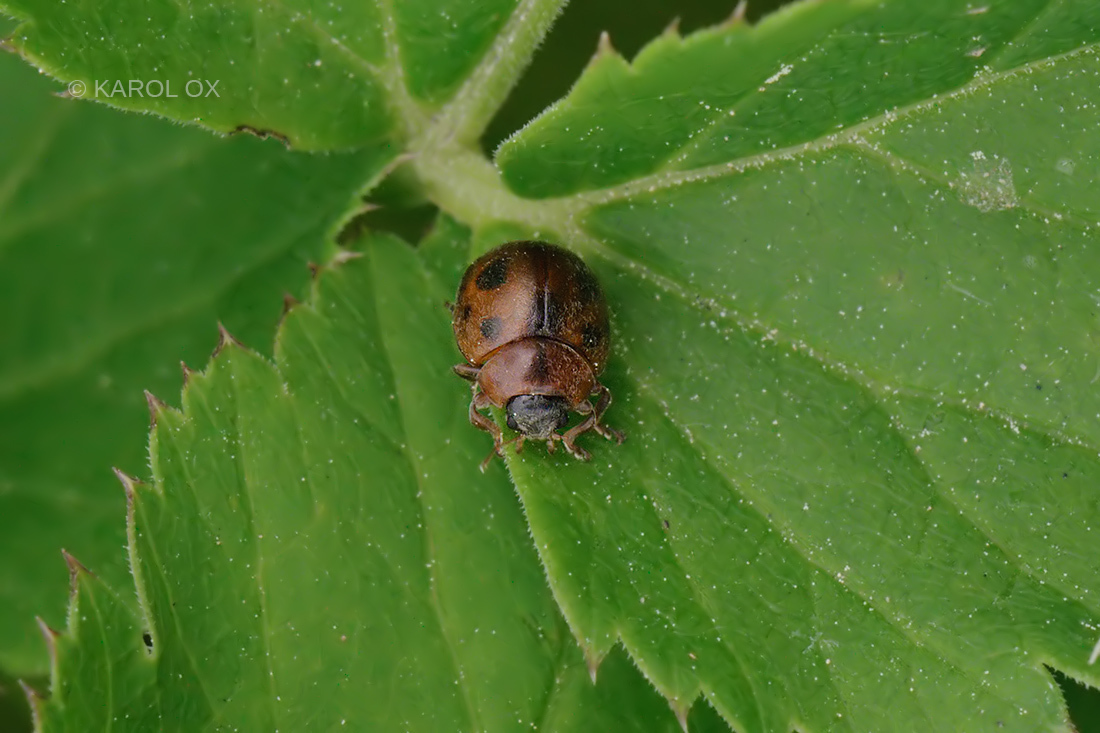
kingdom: Animalia
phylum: Arthropoda
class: Insecta
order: Coleoptera
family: Coccinellidae
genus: Cynegetis
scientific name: Cynegetis impunctata
